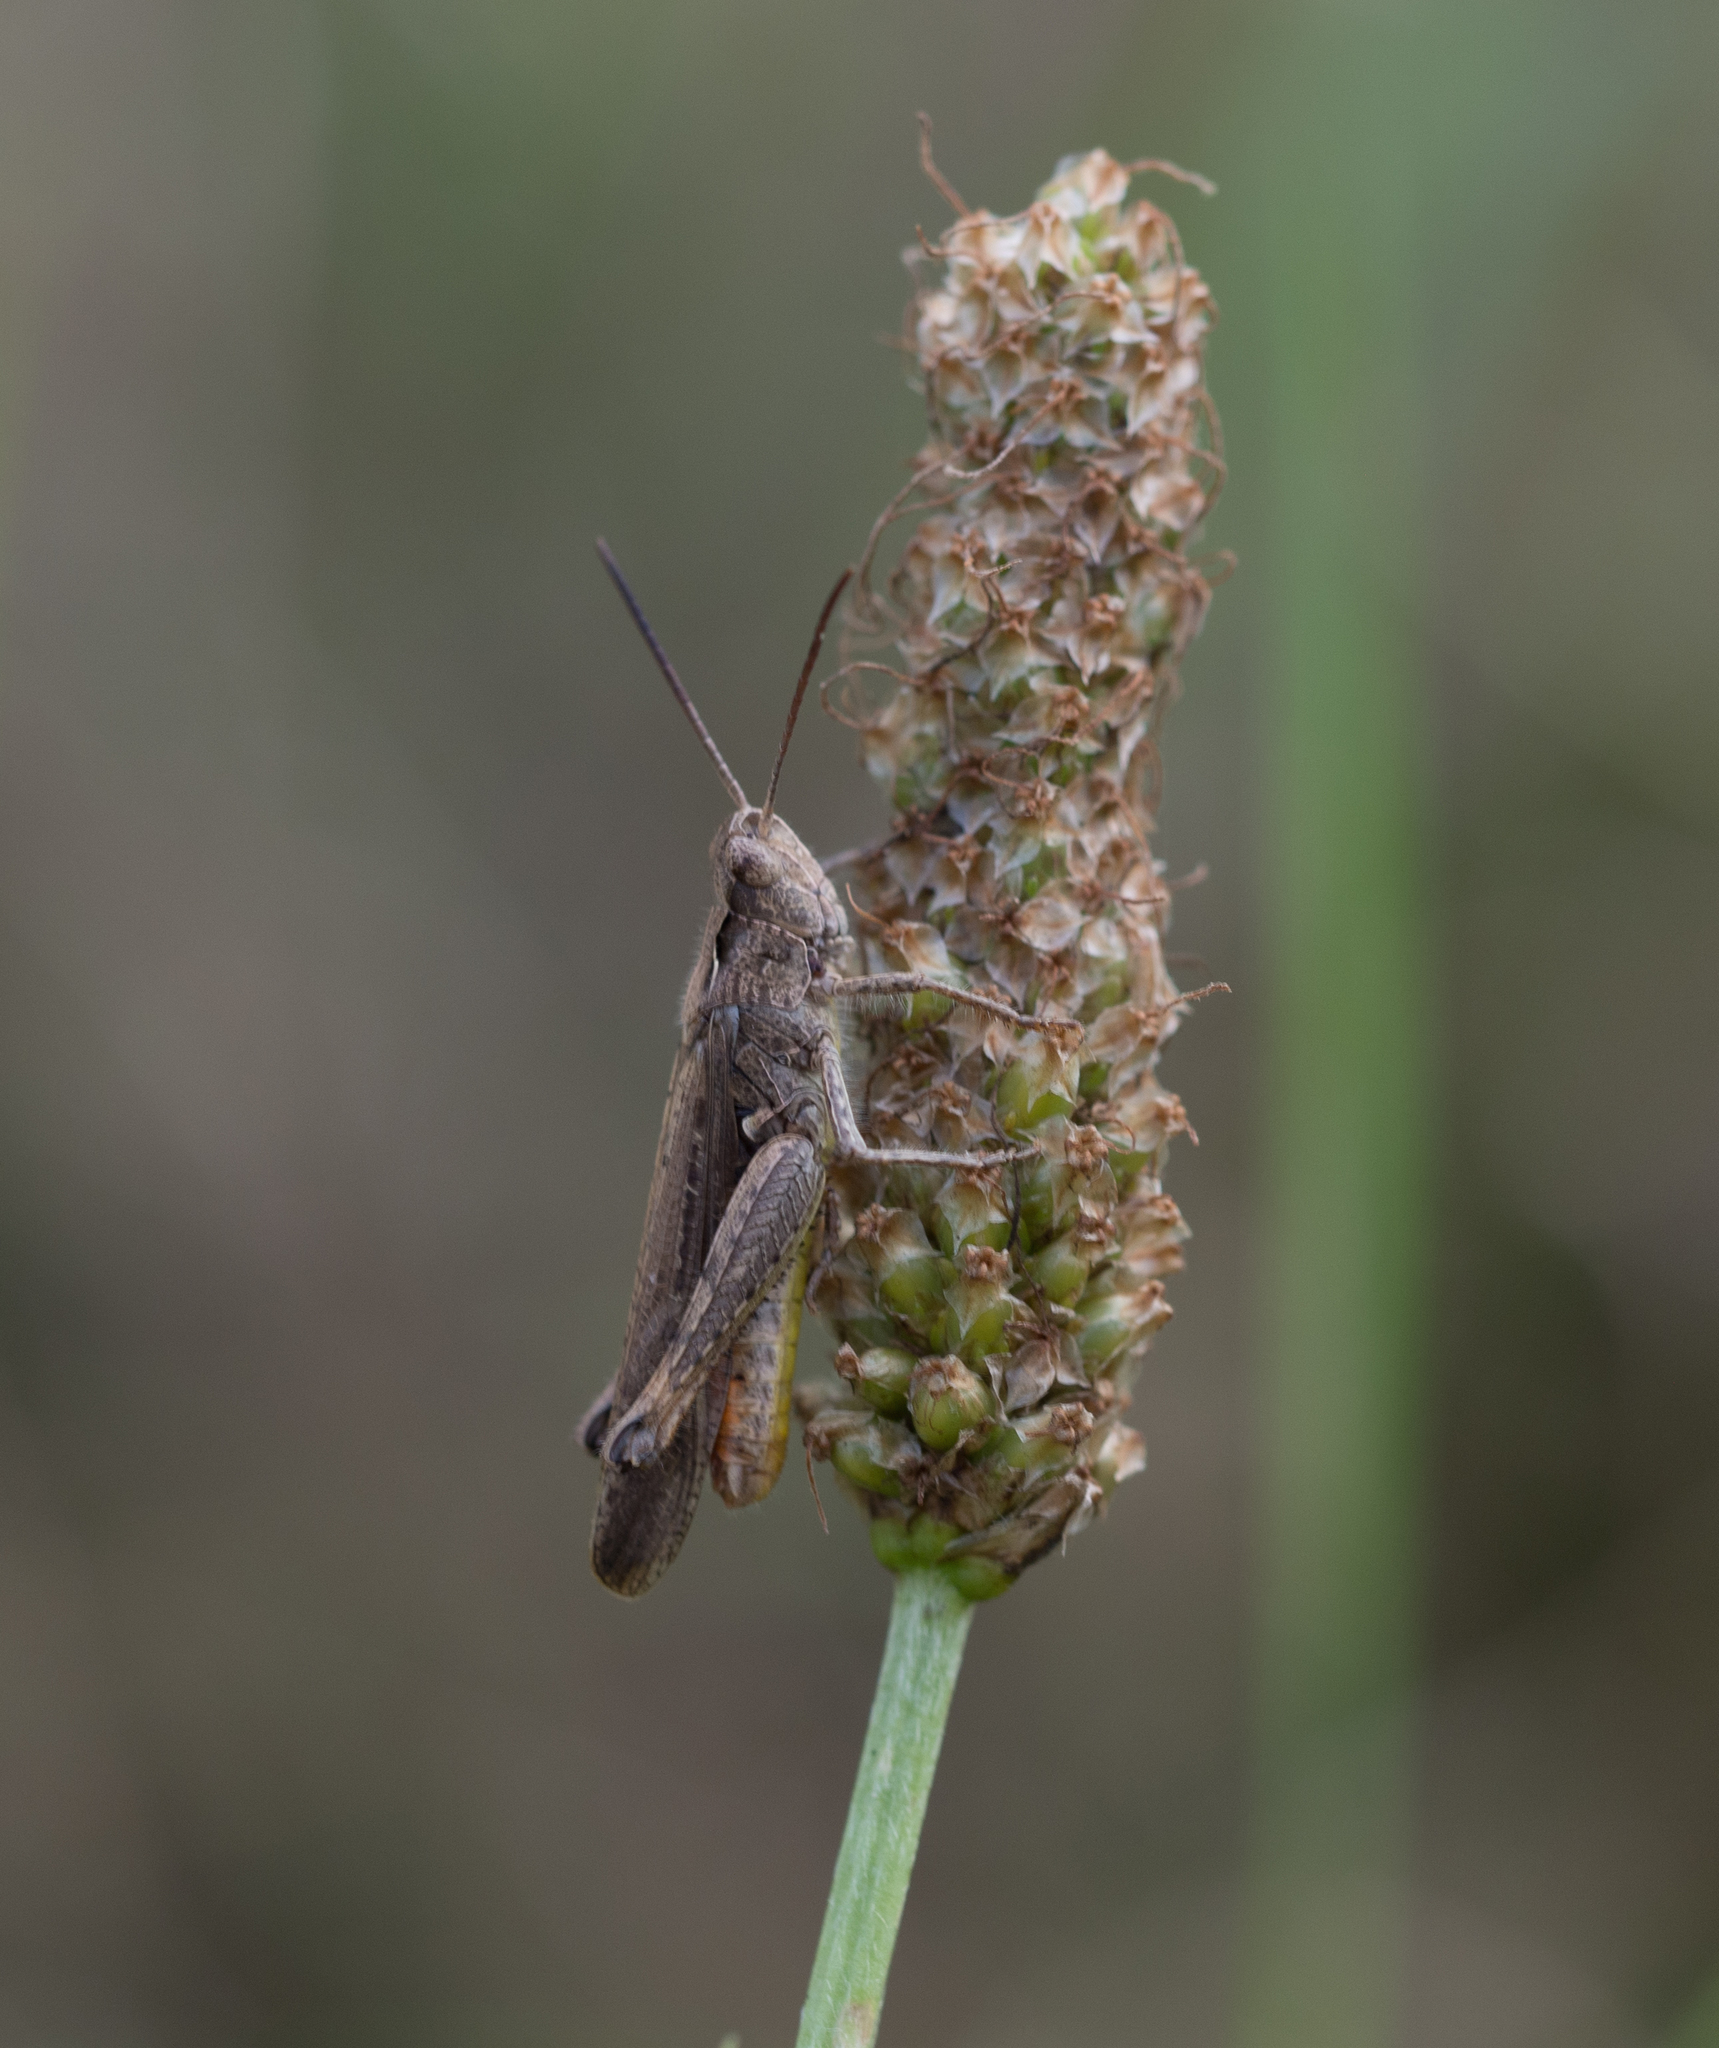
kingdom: Animalia
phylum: Arthropoda
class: Insecta
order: Orthoptera
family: Acrididae
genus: Chorthippus
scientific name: Chorthippus brunneus
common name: Field grasshopper
